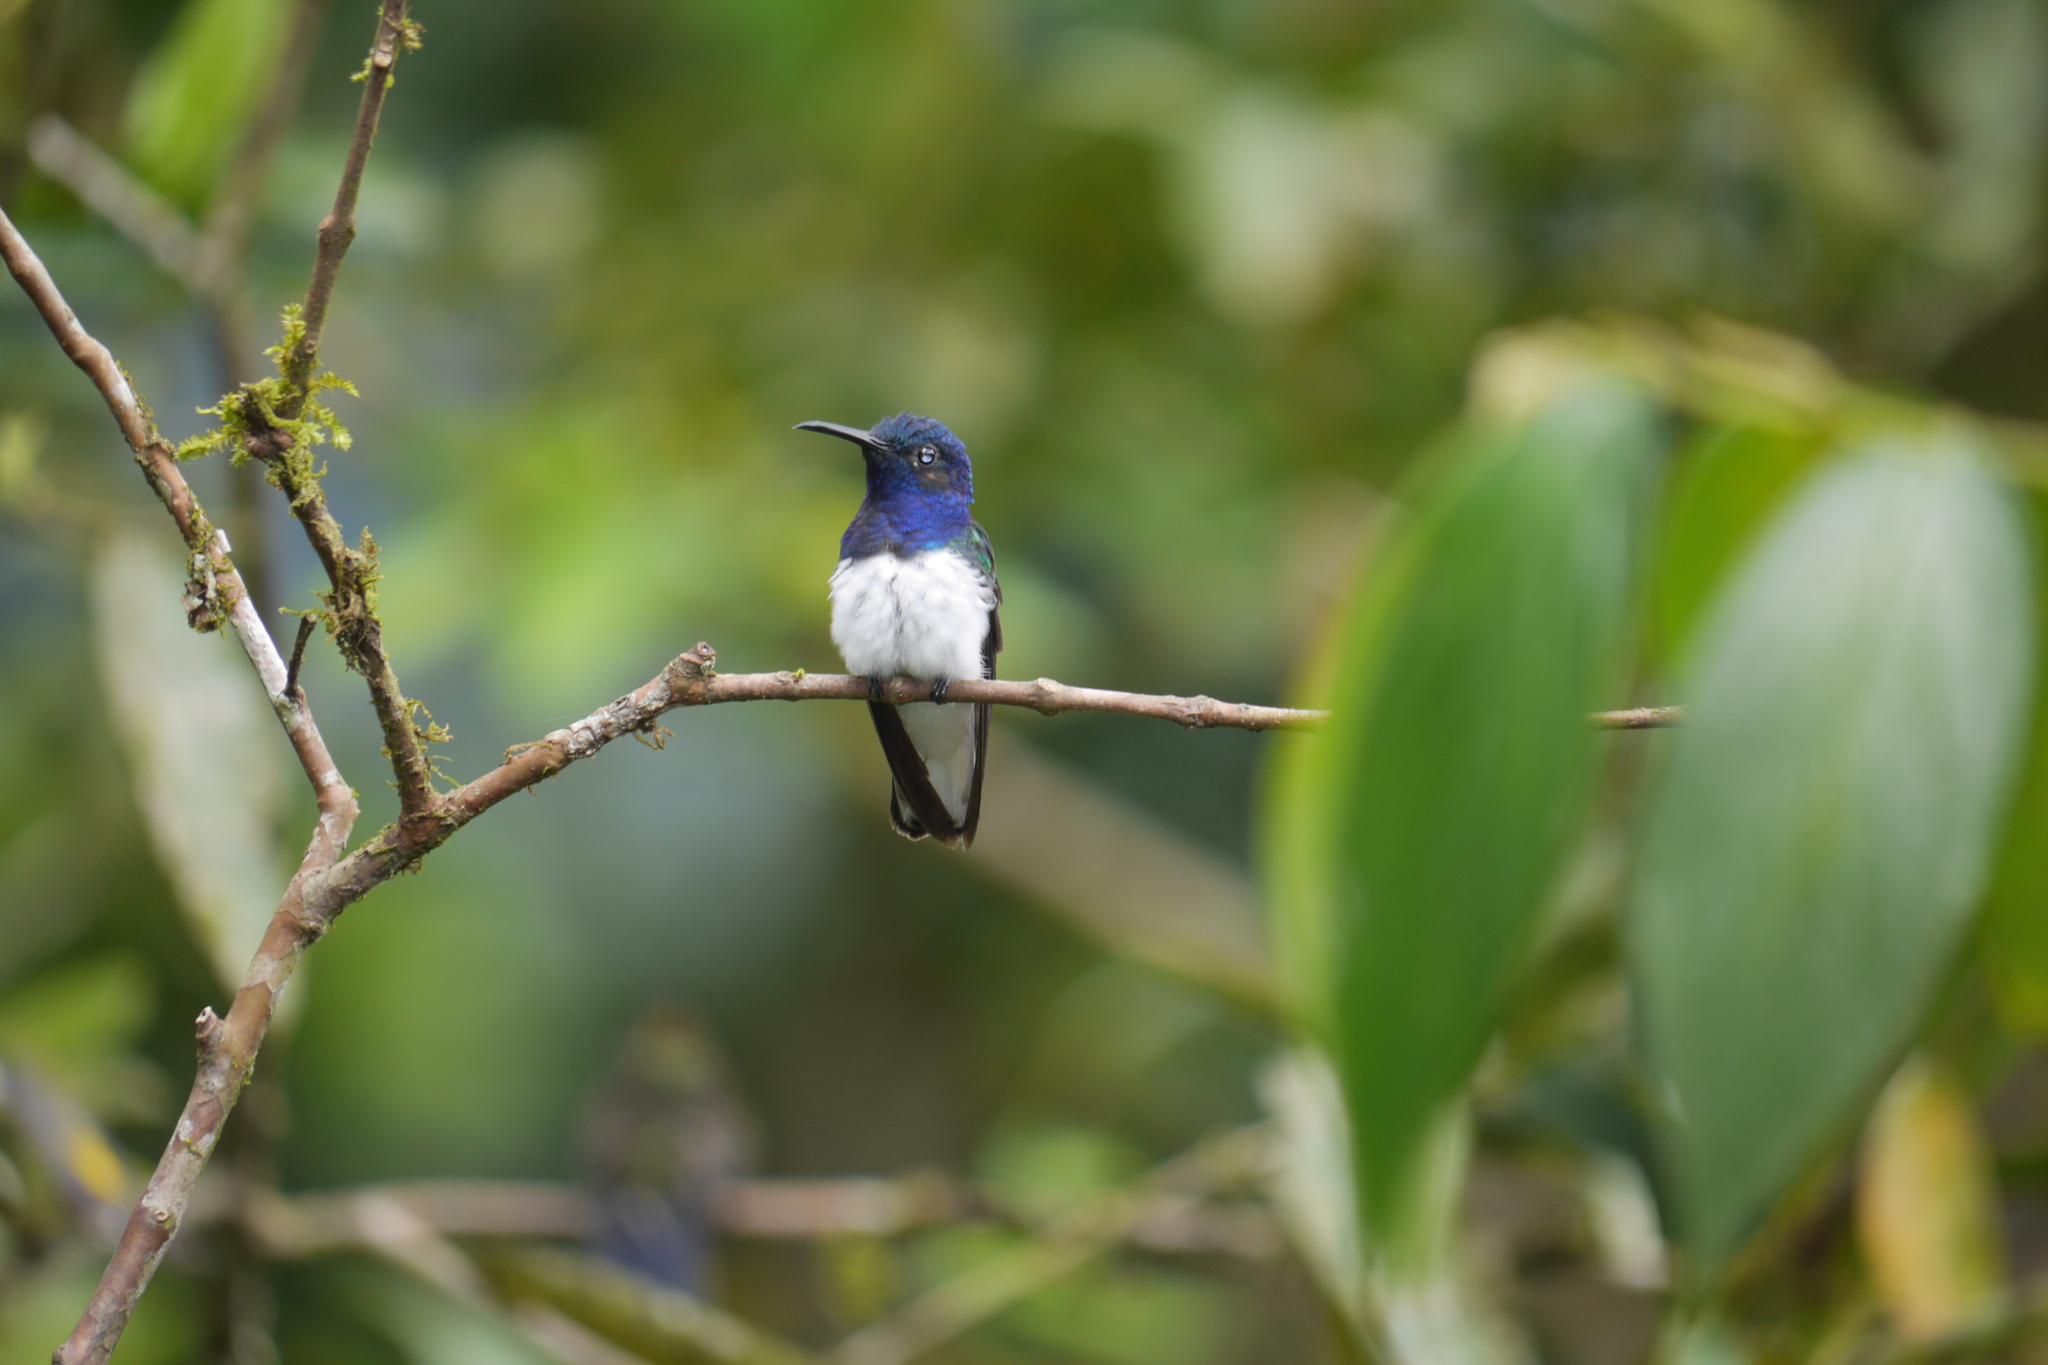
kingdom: Animalia
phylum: Chordata
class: Aves
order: Apodiformes
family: Trochilidae
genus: Florisuga
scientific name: Florisuga mellivora
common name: White-necked jacobin
